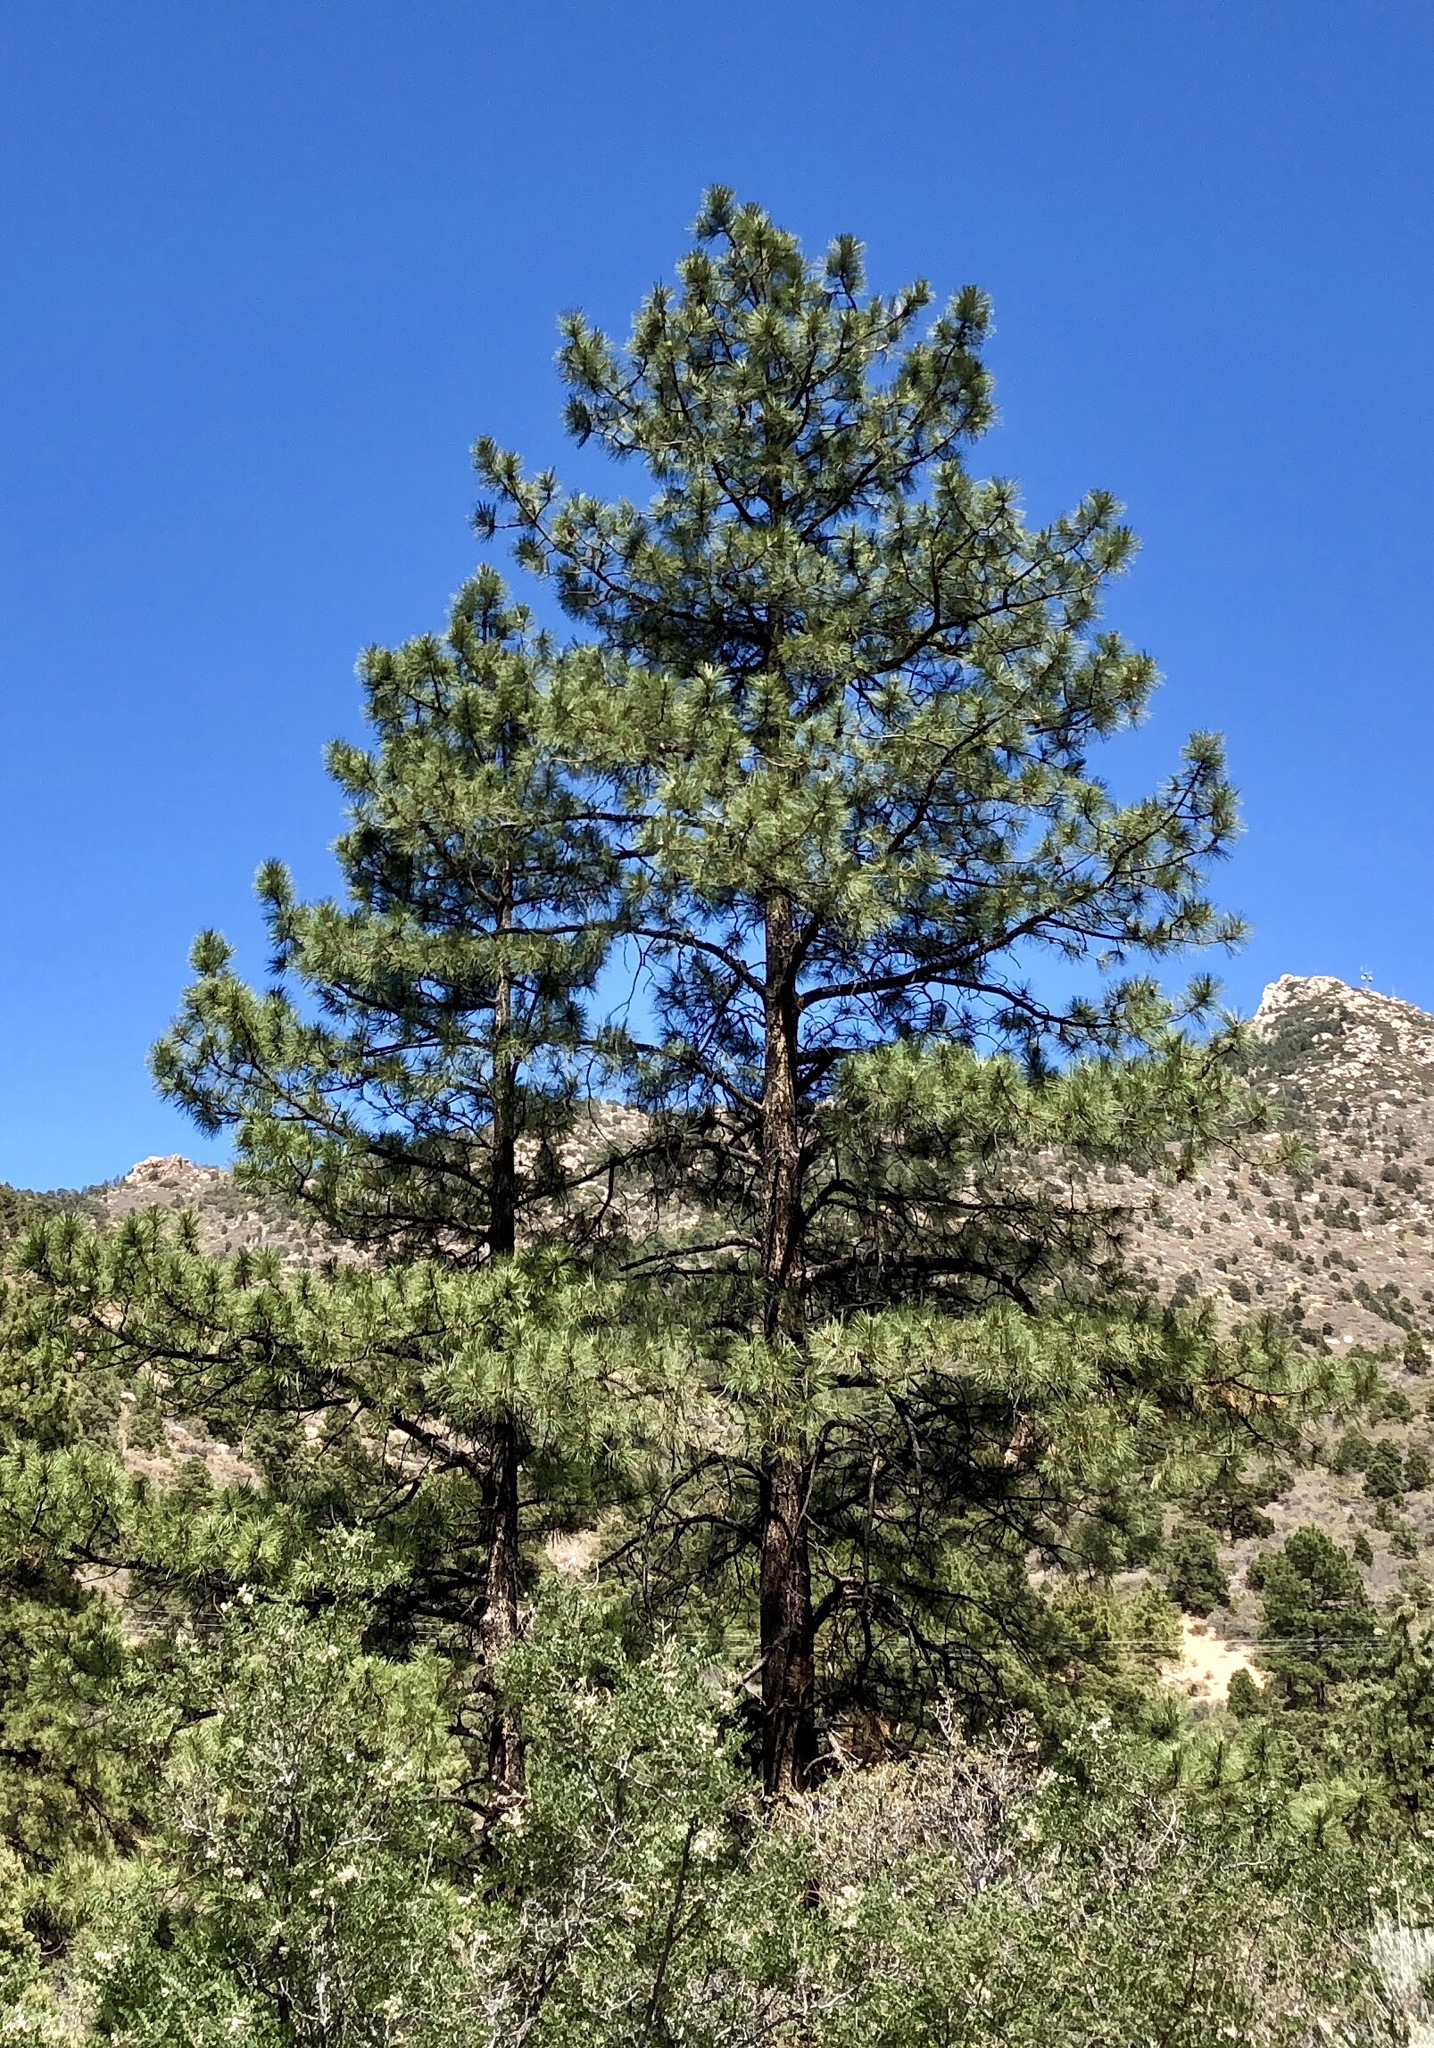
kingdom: Plantae
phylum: Tracheophyta
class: Pinopsida
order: Pinales
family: Pinaceae
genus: Pinus
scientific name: Pinus ponderosa
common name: Western yellow-pine
